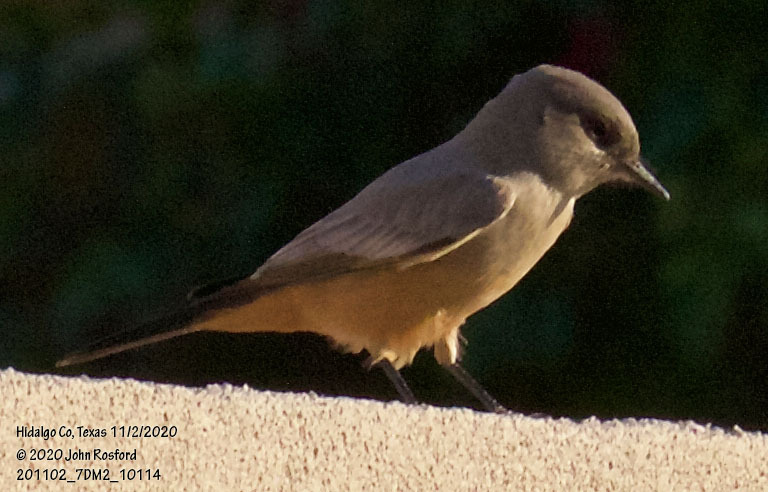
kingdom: Animalia
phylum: Chordata
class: Aves
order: Passeriformes
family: Tyrannidae
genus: Sayornis
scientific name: Sayornis saya
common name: Say's phoebe
